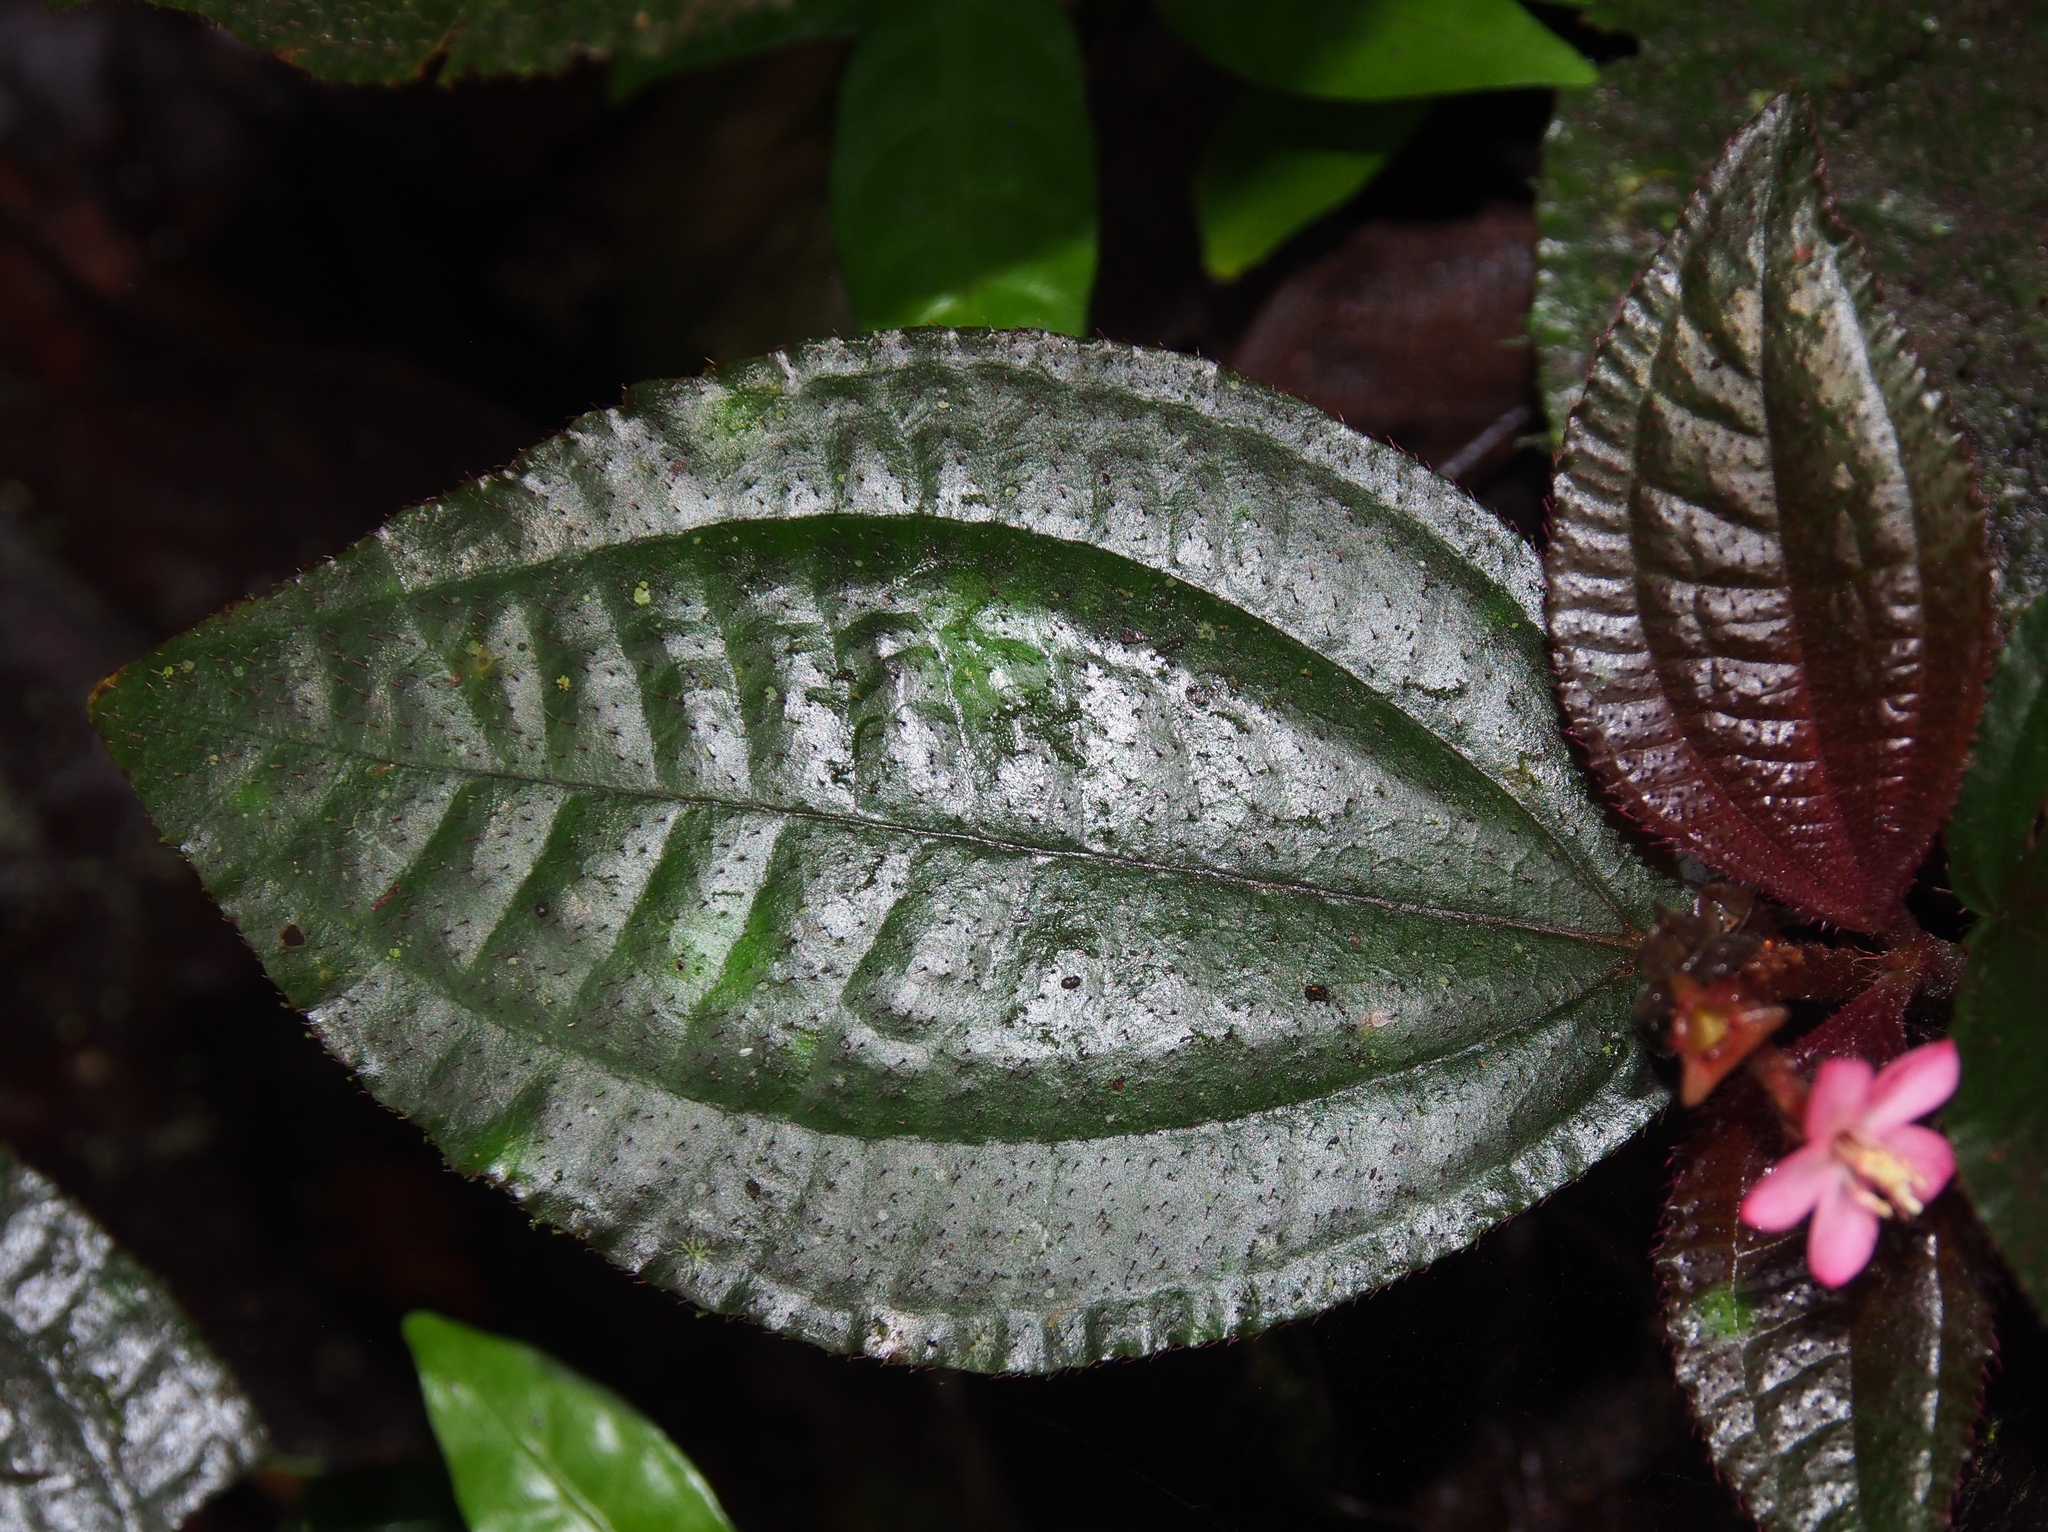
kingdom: Plantae
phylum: Tracheophyta
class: Magnoliopsida
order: Myrtales
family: Melastomataceae
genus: Triolena
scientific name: Triolena hirsuta
